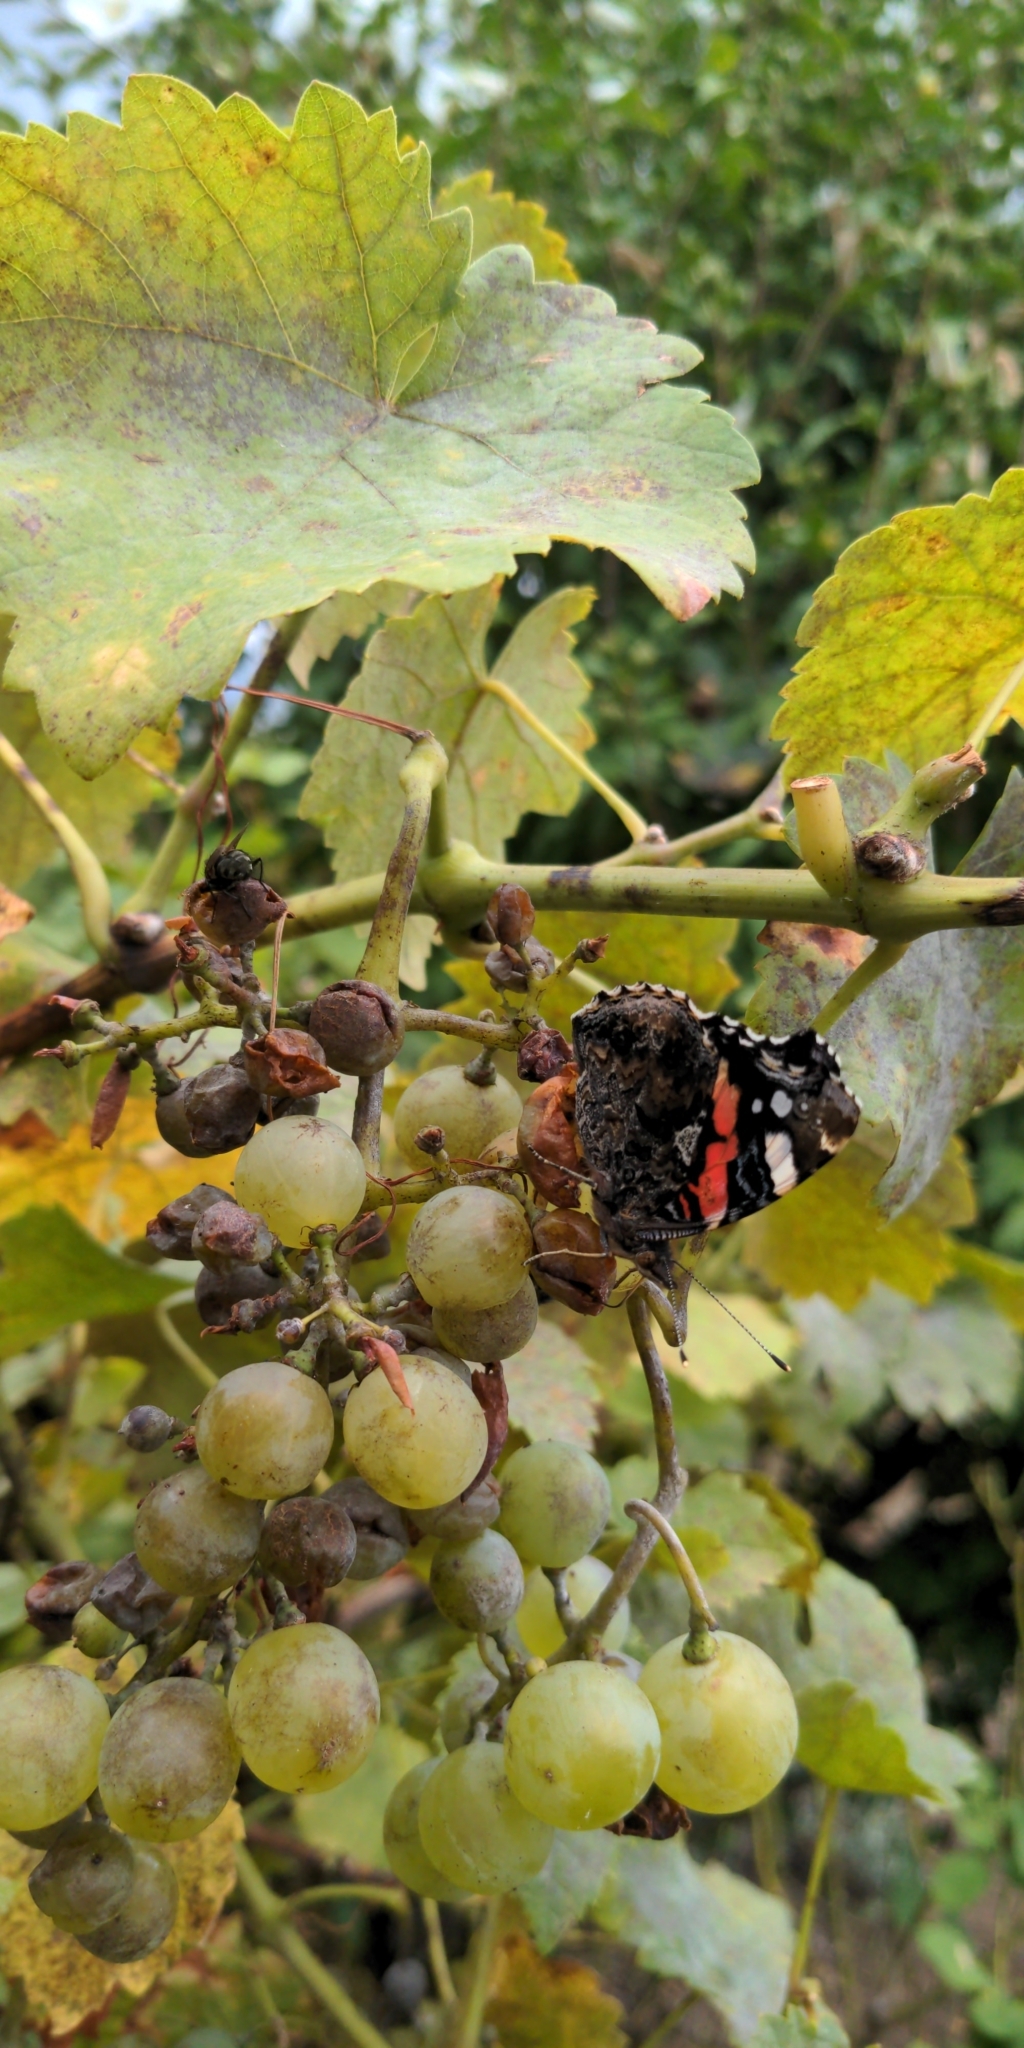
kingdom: Animalia
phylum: Arthropoda
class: Insecta
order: Lepidoptera
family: Nymphalidae
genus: Vanessa
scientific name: Vanessa atalanta
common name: Red admiral
